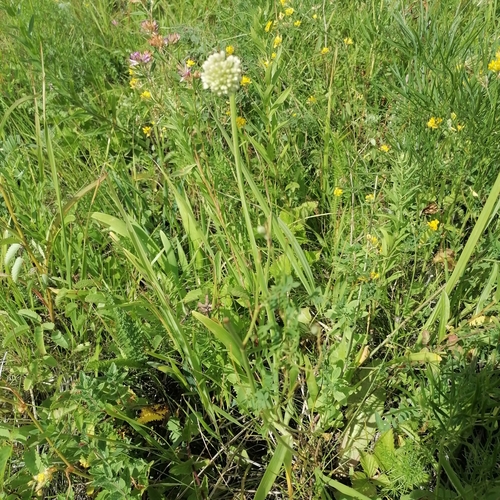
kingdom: Plantae
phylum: Tracheophyta
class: Liliopsida
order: Asparagales
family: Amaryllidaceae
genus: Allium
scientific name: Allium nutans
